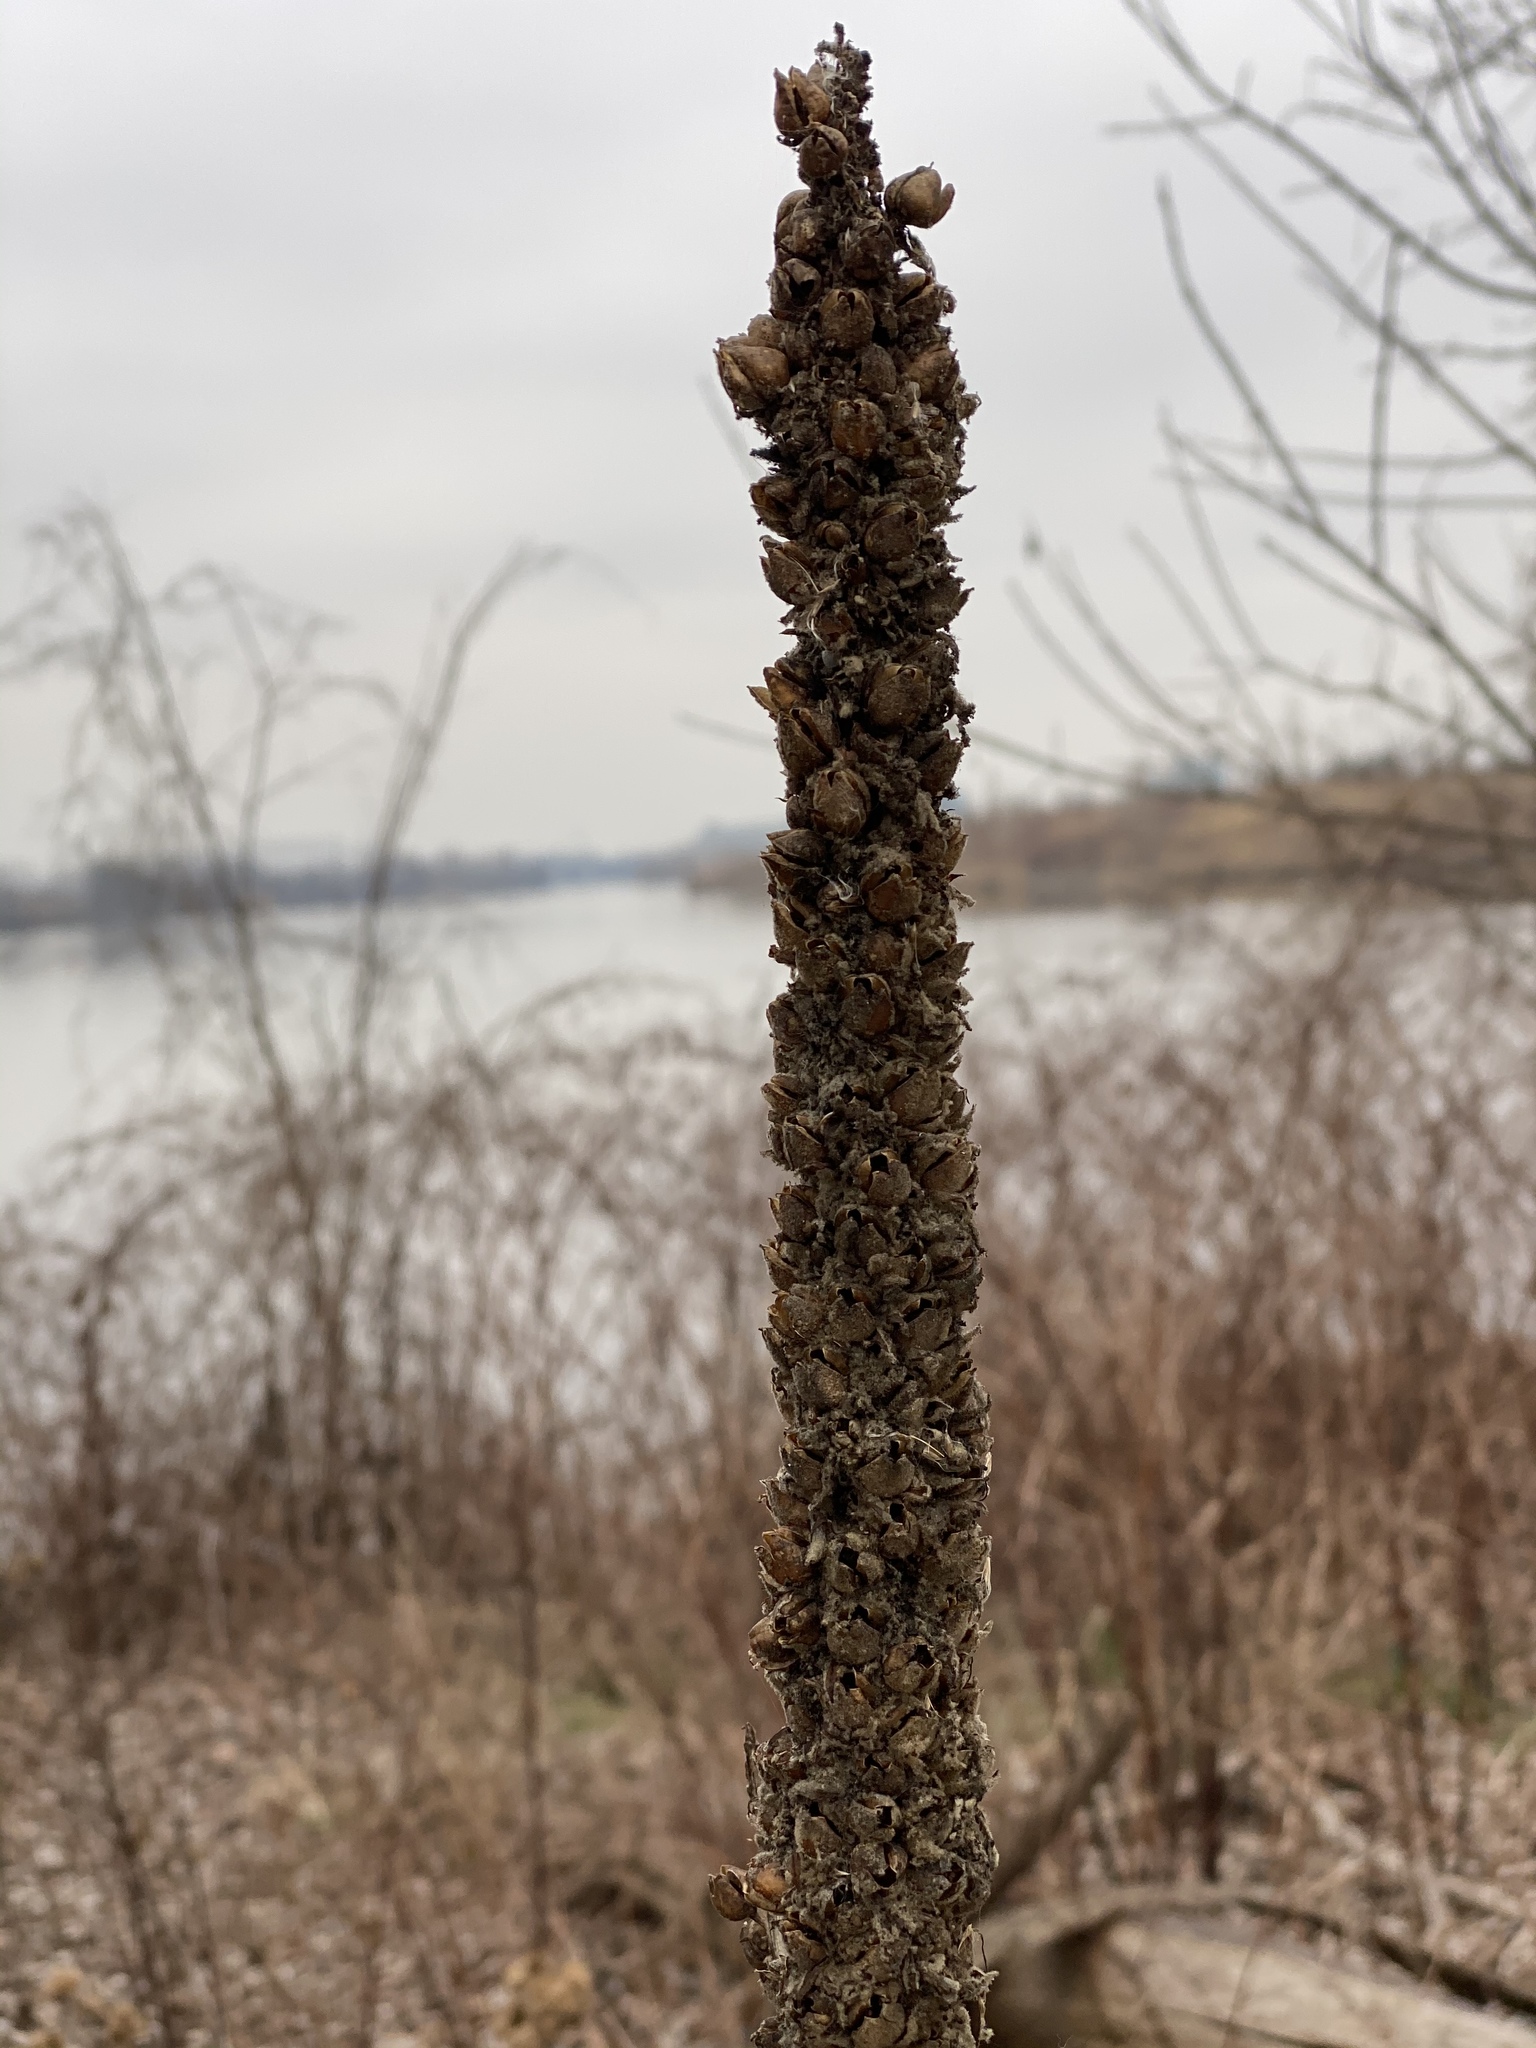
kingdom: Plantae
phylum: Tracheophyta
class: Magnoliopsida
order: Lamiales
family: Scrophulariaceae
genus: Verbascum
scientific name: Verbascum thapsus
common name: Common mullein
